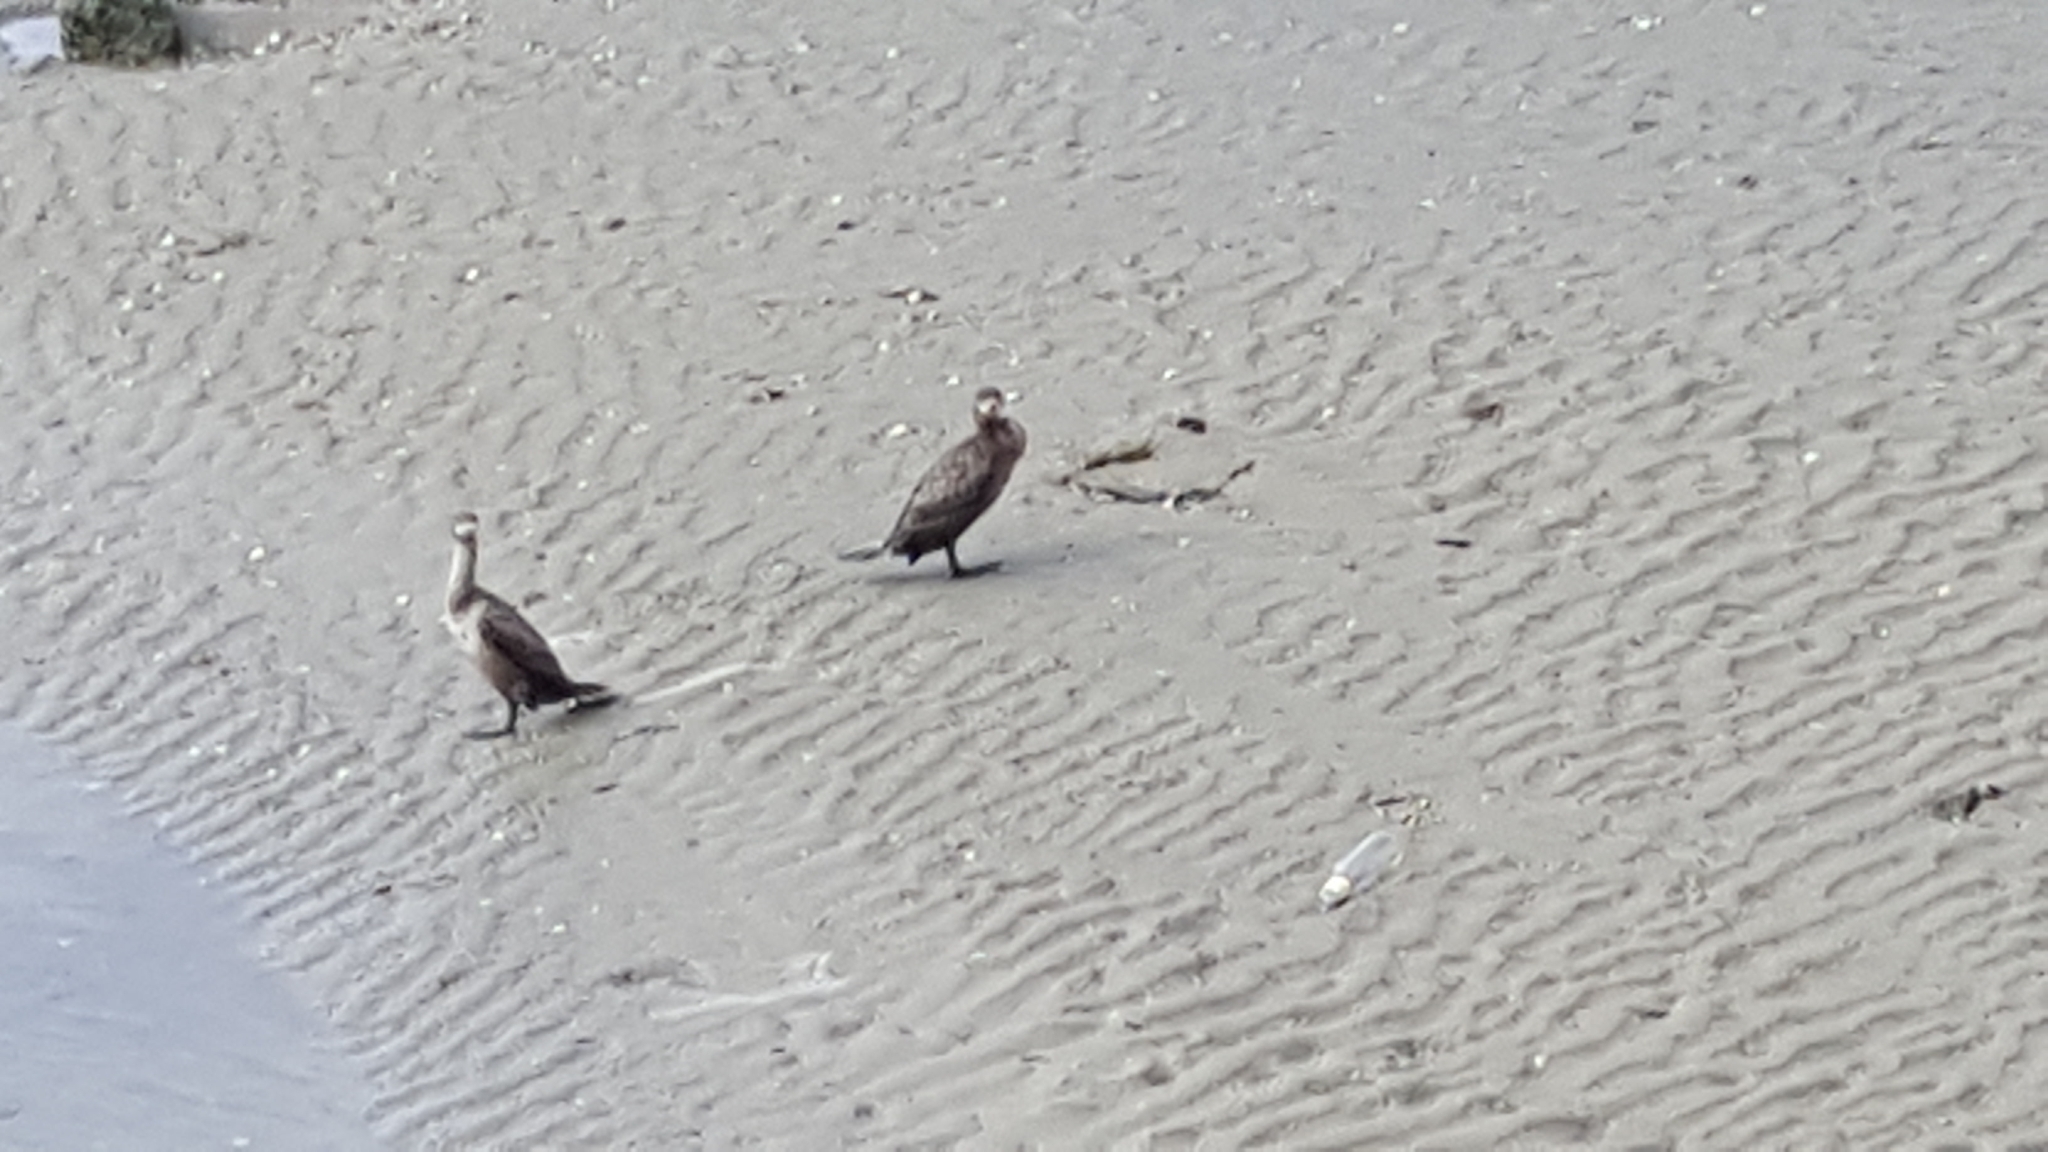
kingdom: Animalia
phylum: Chordata
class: Aves
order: Suliformes
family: Phalacrocoracidae
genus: Phalacrocorax
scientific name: Phalacrocorax carbo
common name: Great cormorant
